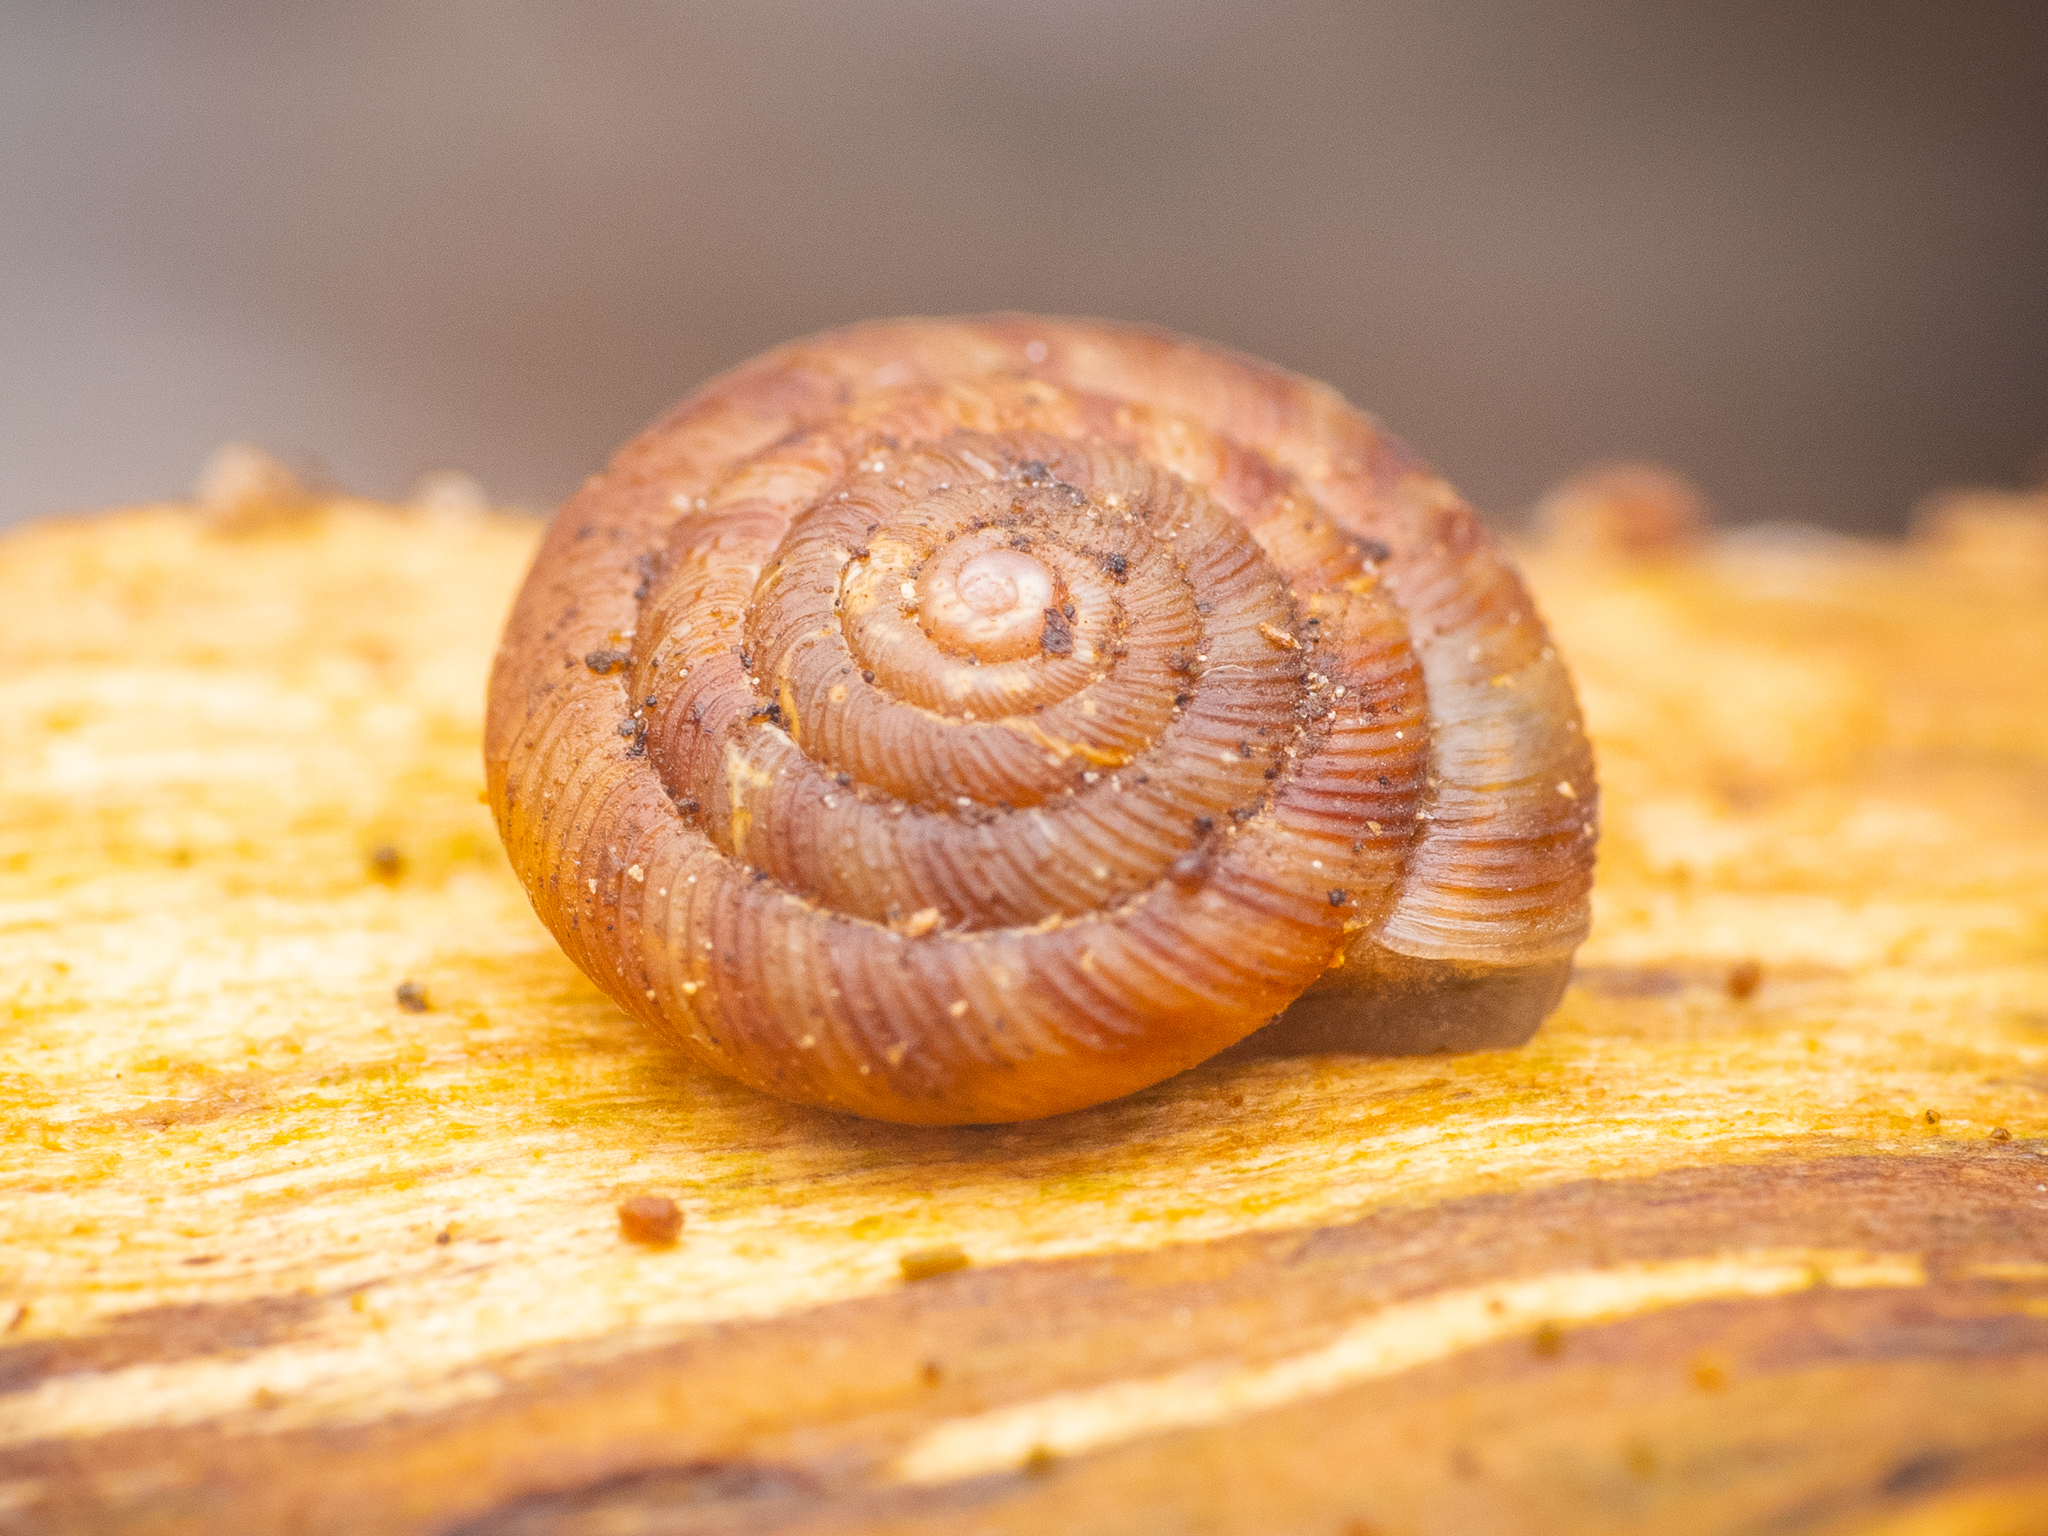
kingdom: Animalia
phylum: Mollusca
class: Gastropoda
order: Stylommatophora
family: Discidae
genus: Discus
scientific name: Discus rotundatus
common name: Rounded snail
